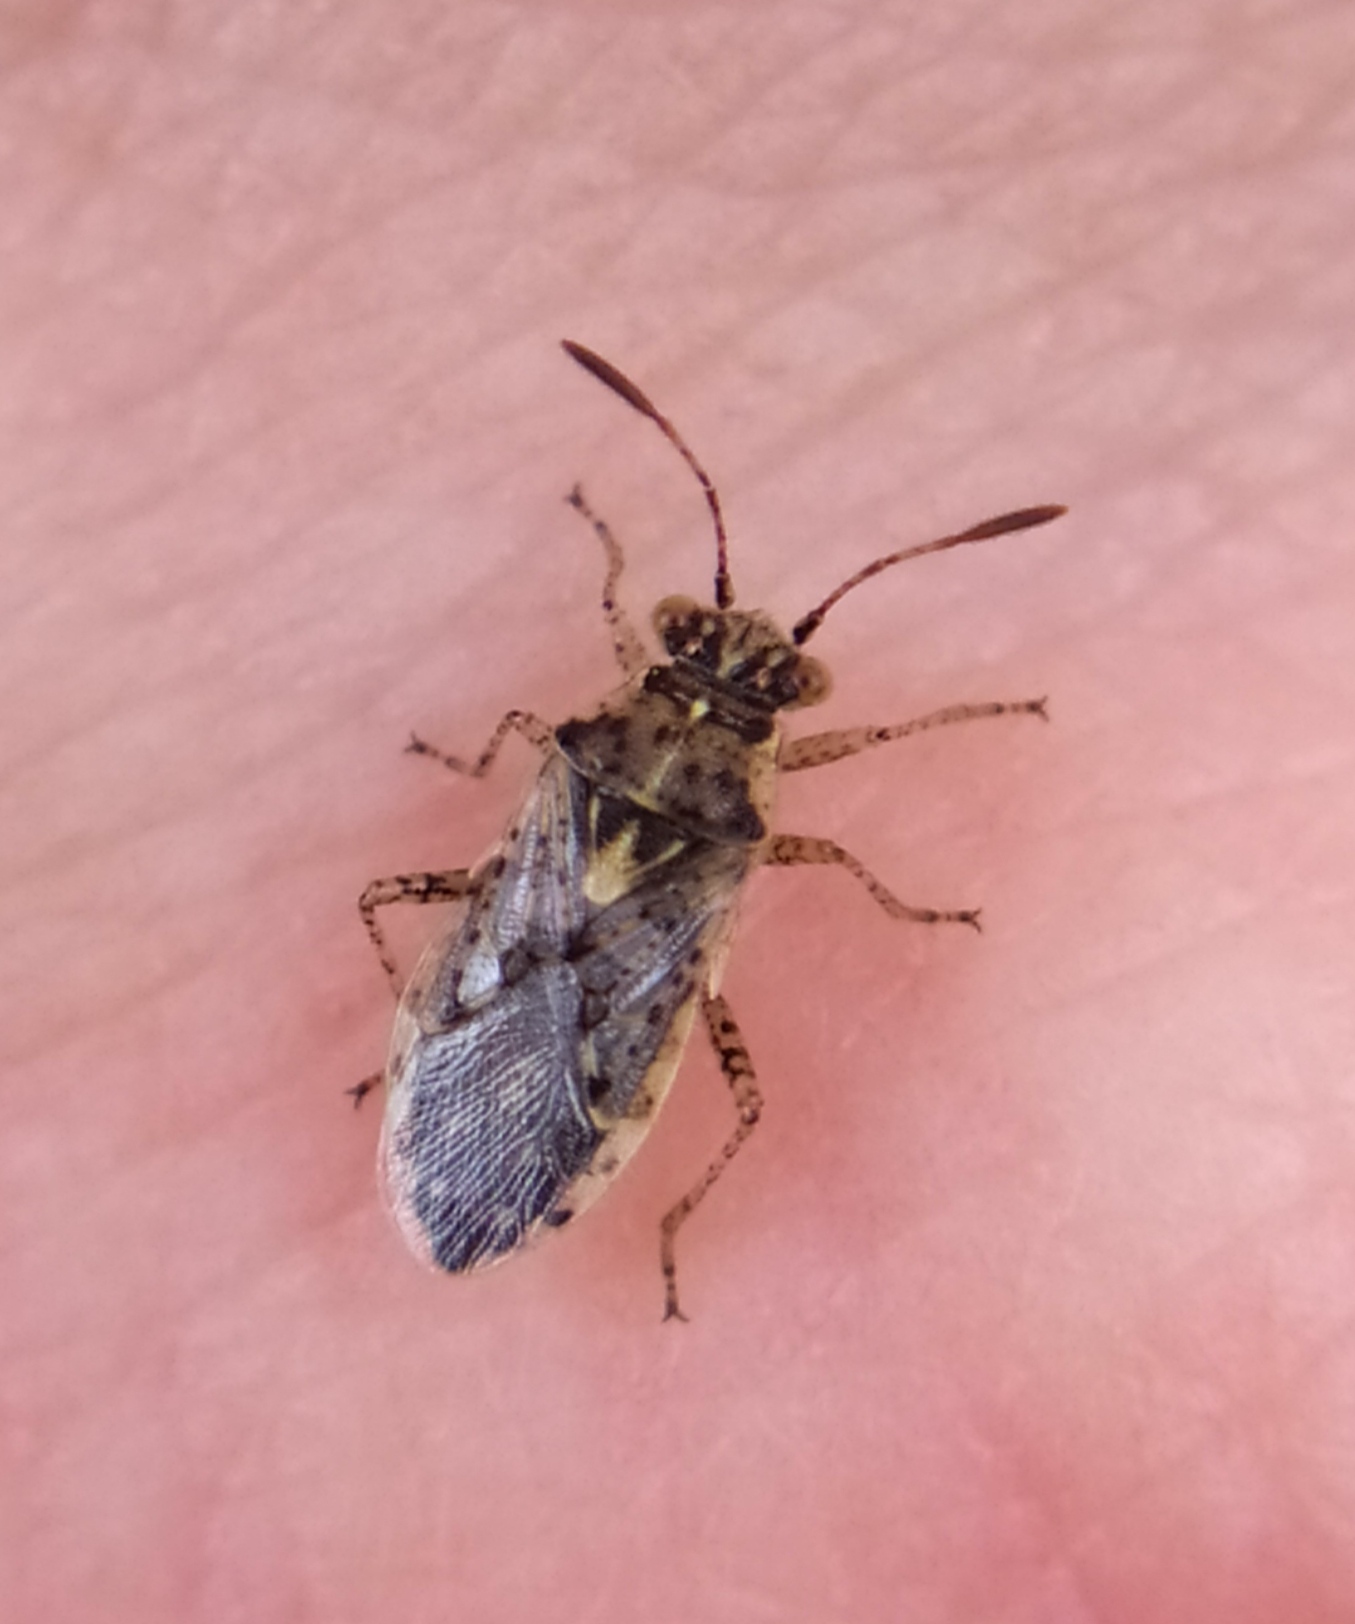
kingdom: Animalia
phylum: Arthropoda
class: Insecta
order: Hemiptera
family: Rhopalidae
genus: Brachycarenus
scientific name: Brachycarenus tigrinus
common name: Scentless plant bug
